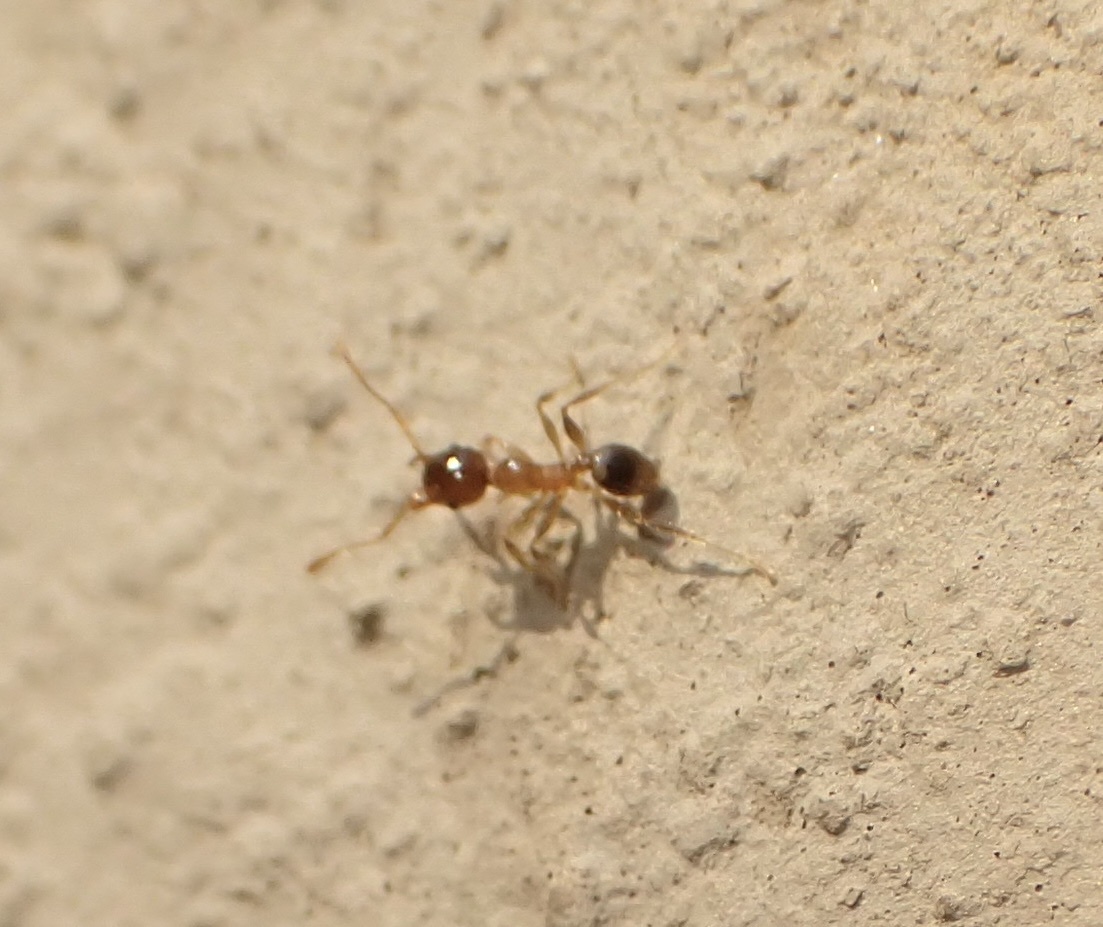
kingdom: Animalia
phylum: Arthropoda
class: Insecta
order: Hymenoptera
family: Formicidae
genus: Pheidole
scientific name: Pheidole megacephala
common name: Bigheaded ant
